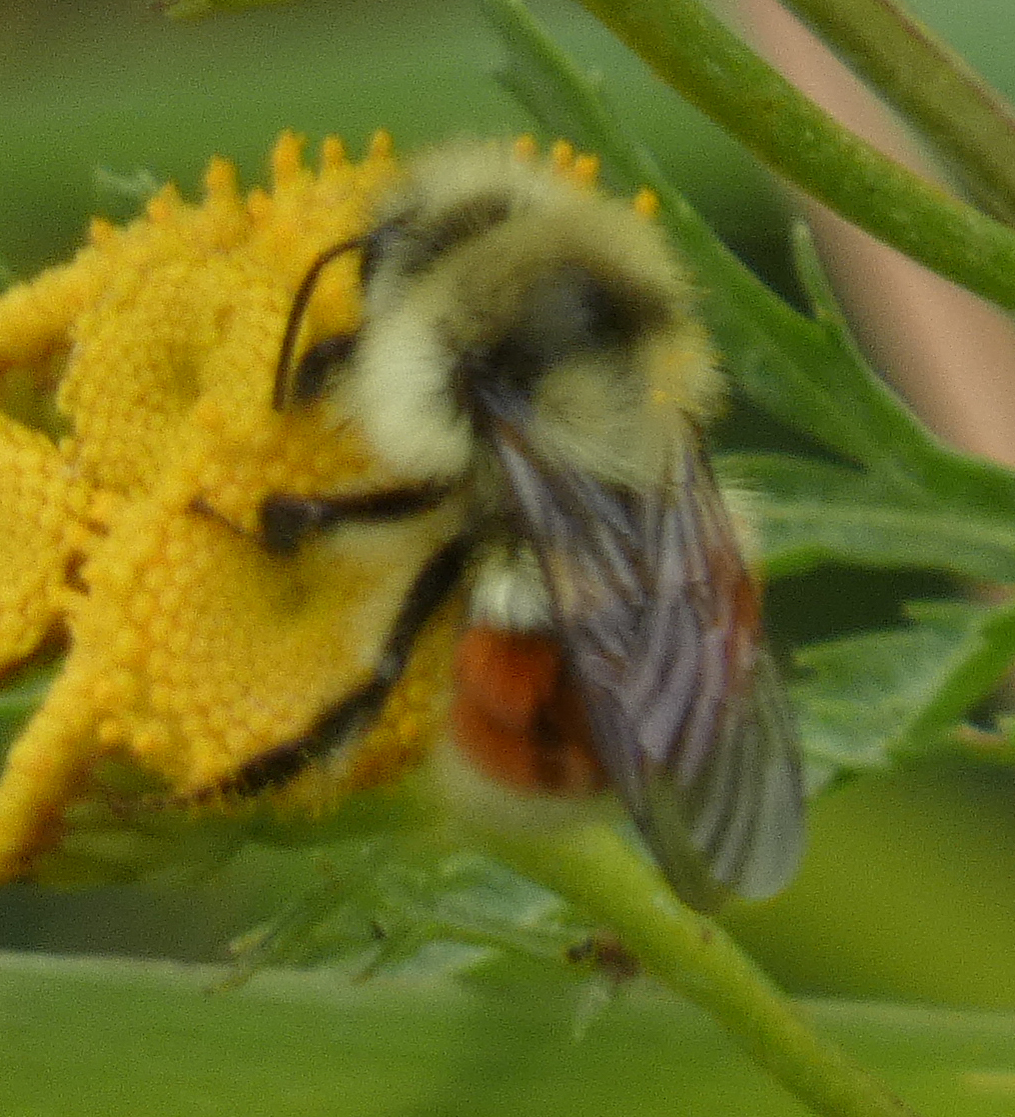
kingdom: Animalia
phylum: Arthropoda
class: Insecta
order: Hymenoptera
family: Apidae
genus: Bombus
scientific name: Bombus huntii
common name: Hunt bumble bee
